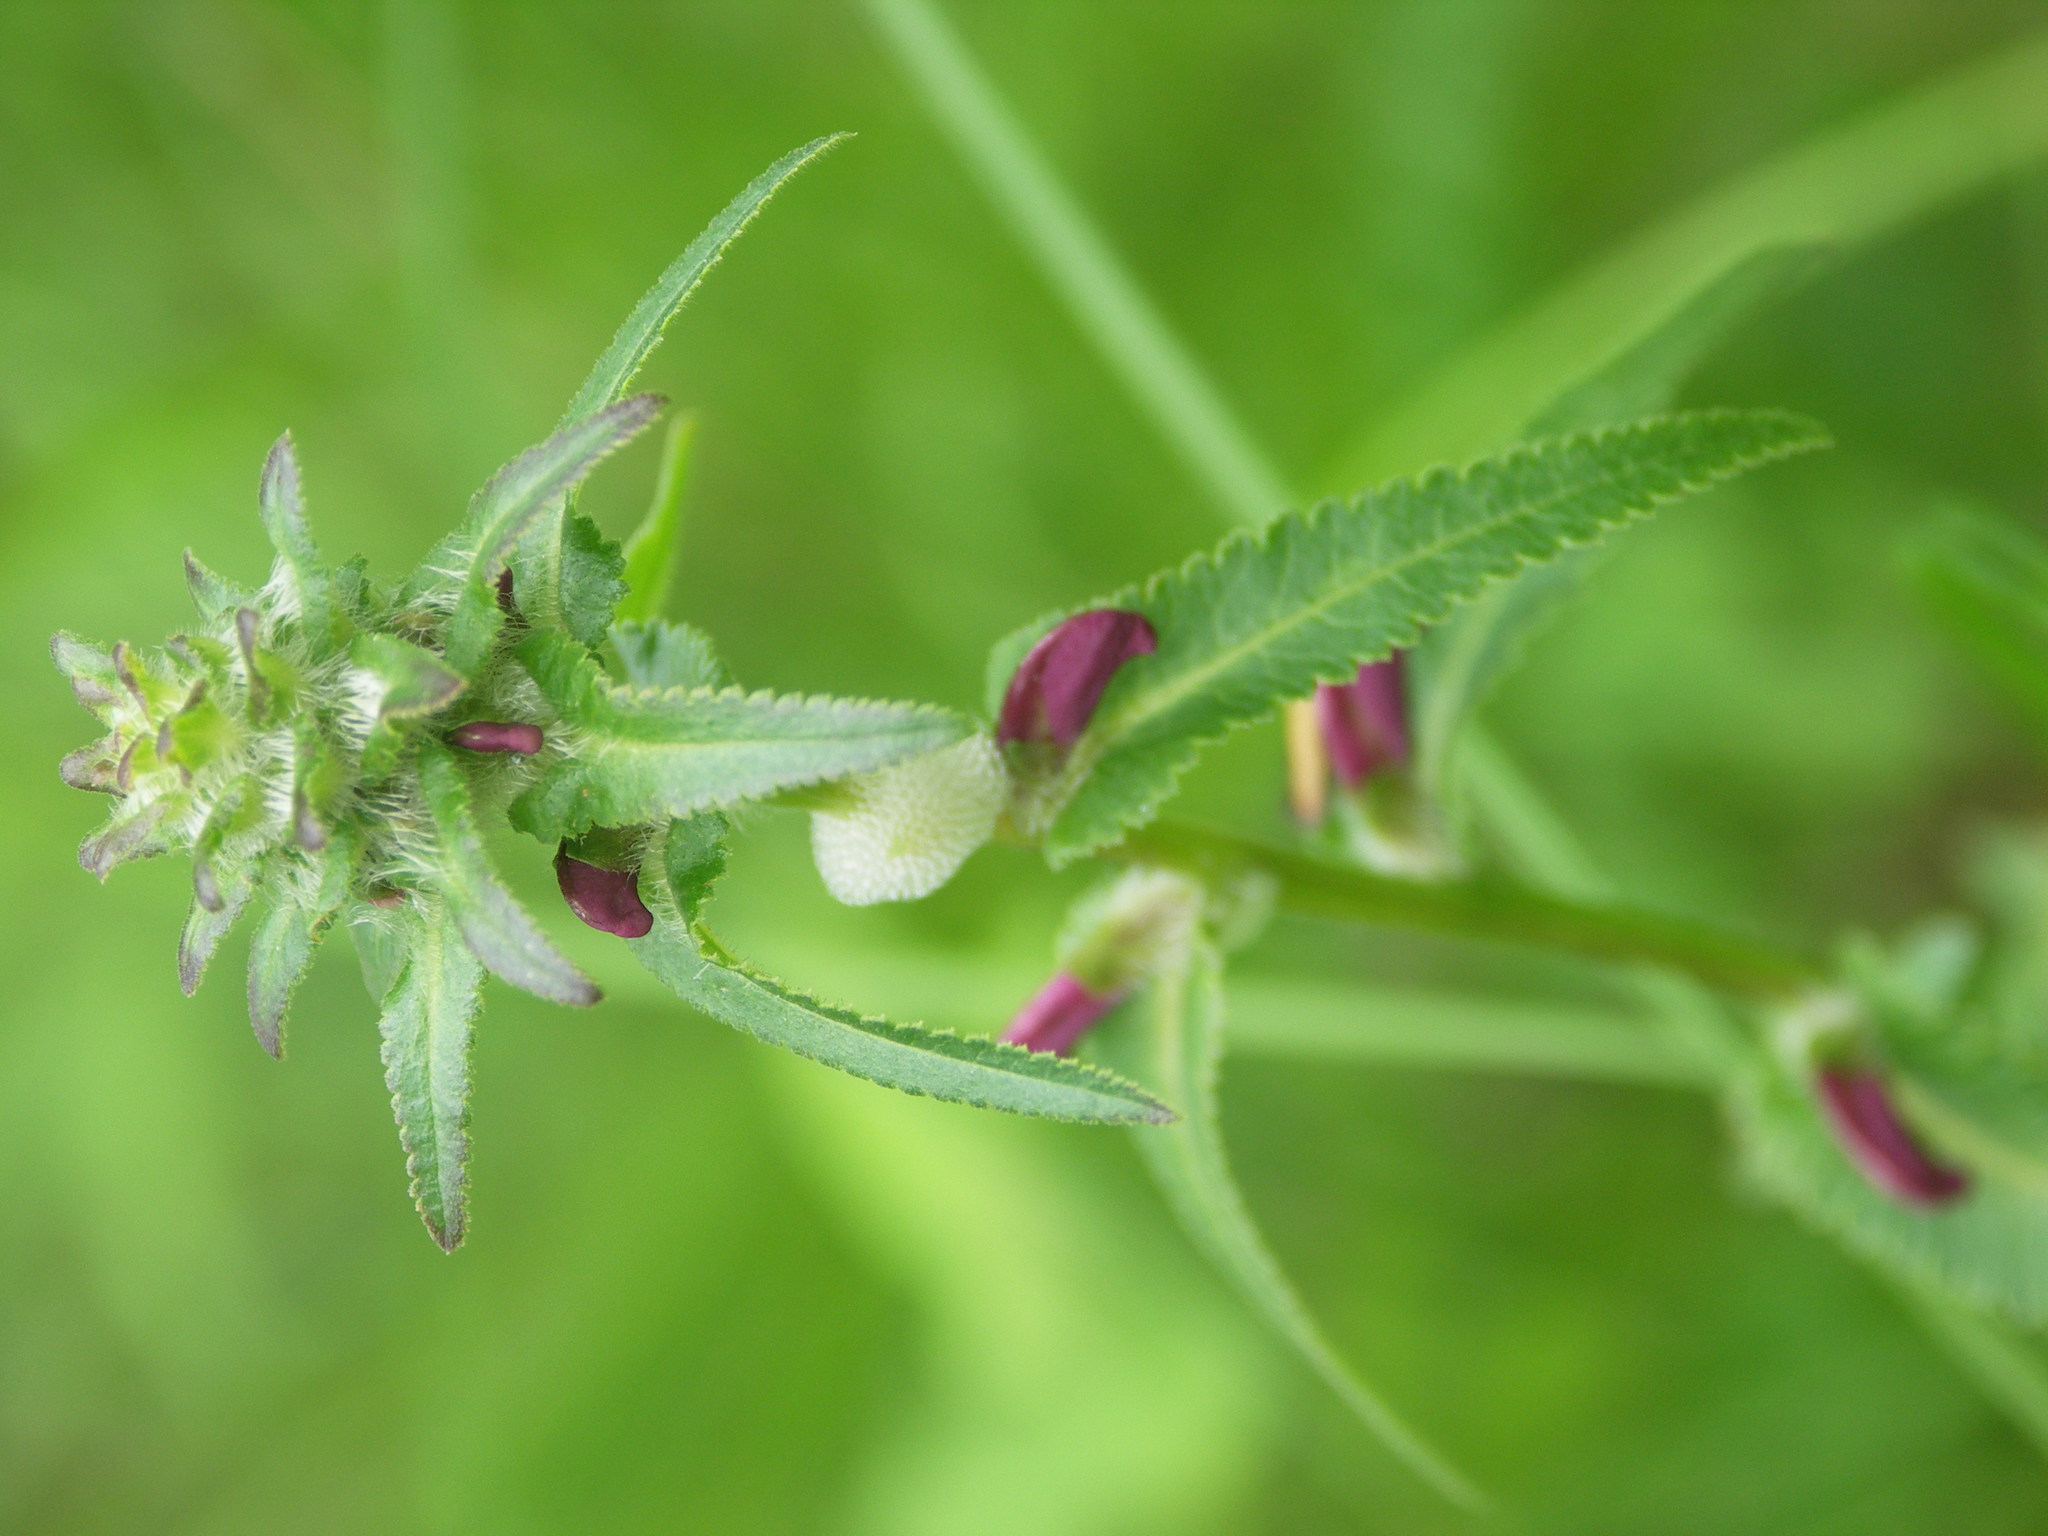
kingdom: Plantae
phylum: Tracheophyta
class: Magnoliopsida
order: Lamiales
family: Orobanchaceae
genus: Pedicularis
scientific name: Pedicularis resupinata
